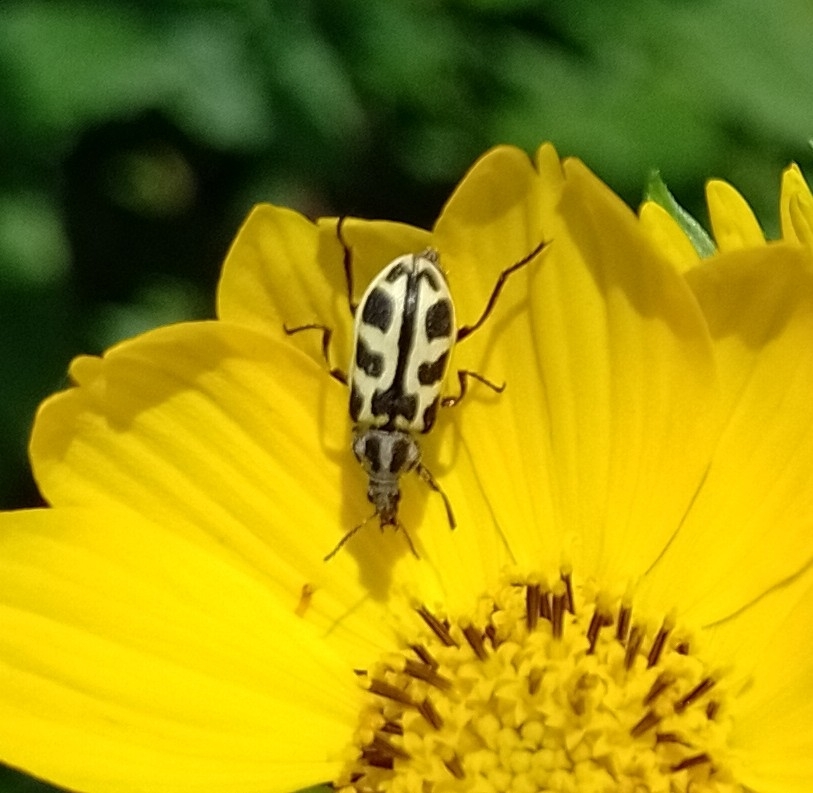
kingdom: Animalia
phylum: Arthropoda
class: Insecta
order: Coleoptera
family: Melyridae
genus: Astylus
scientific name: Astylus atromaculatus
